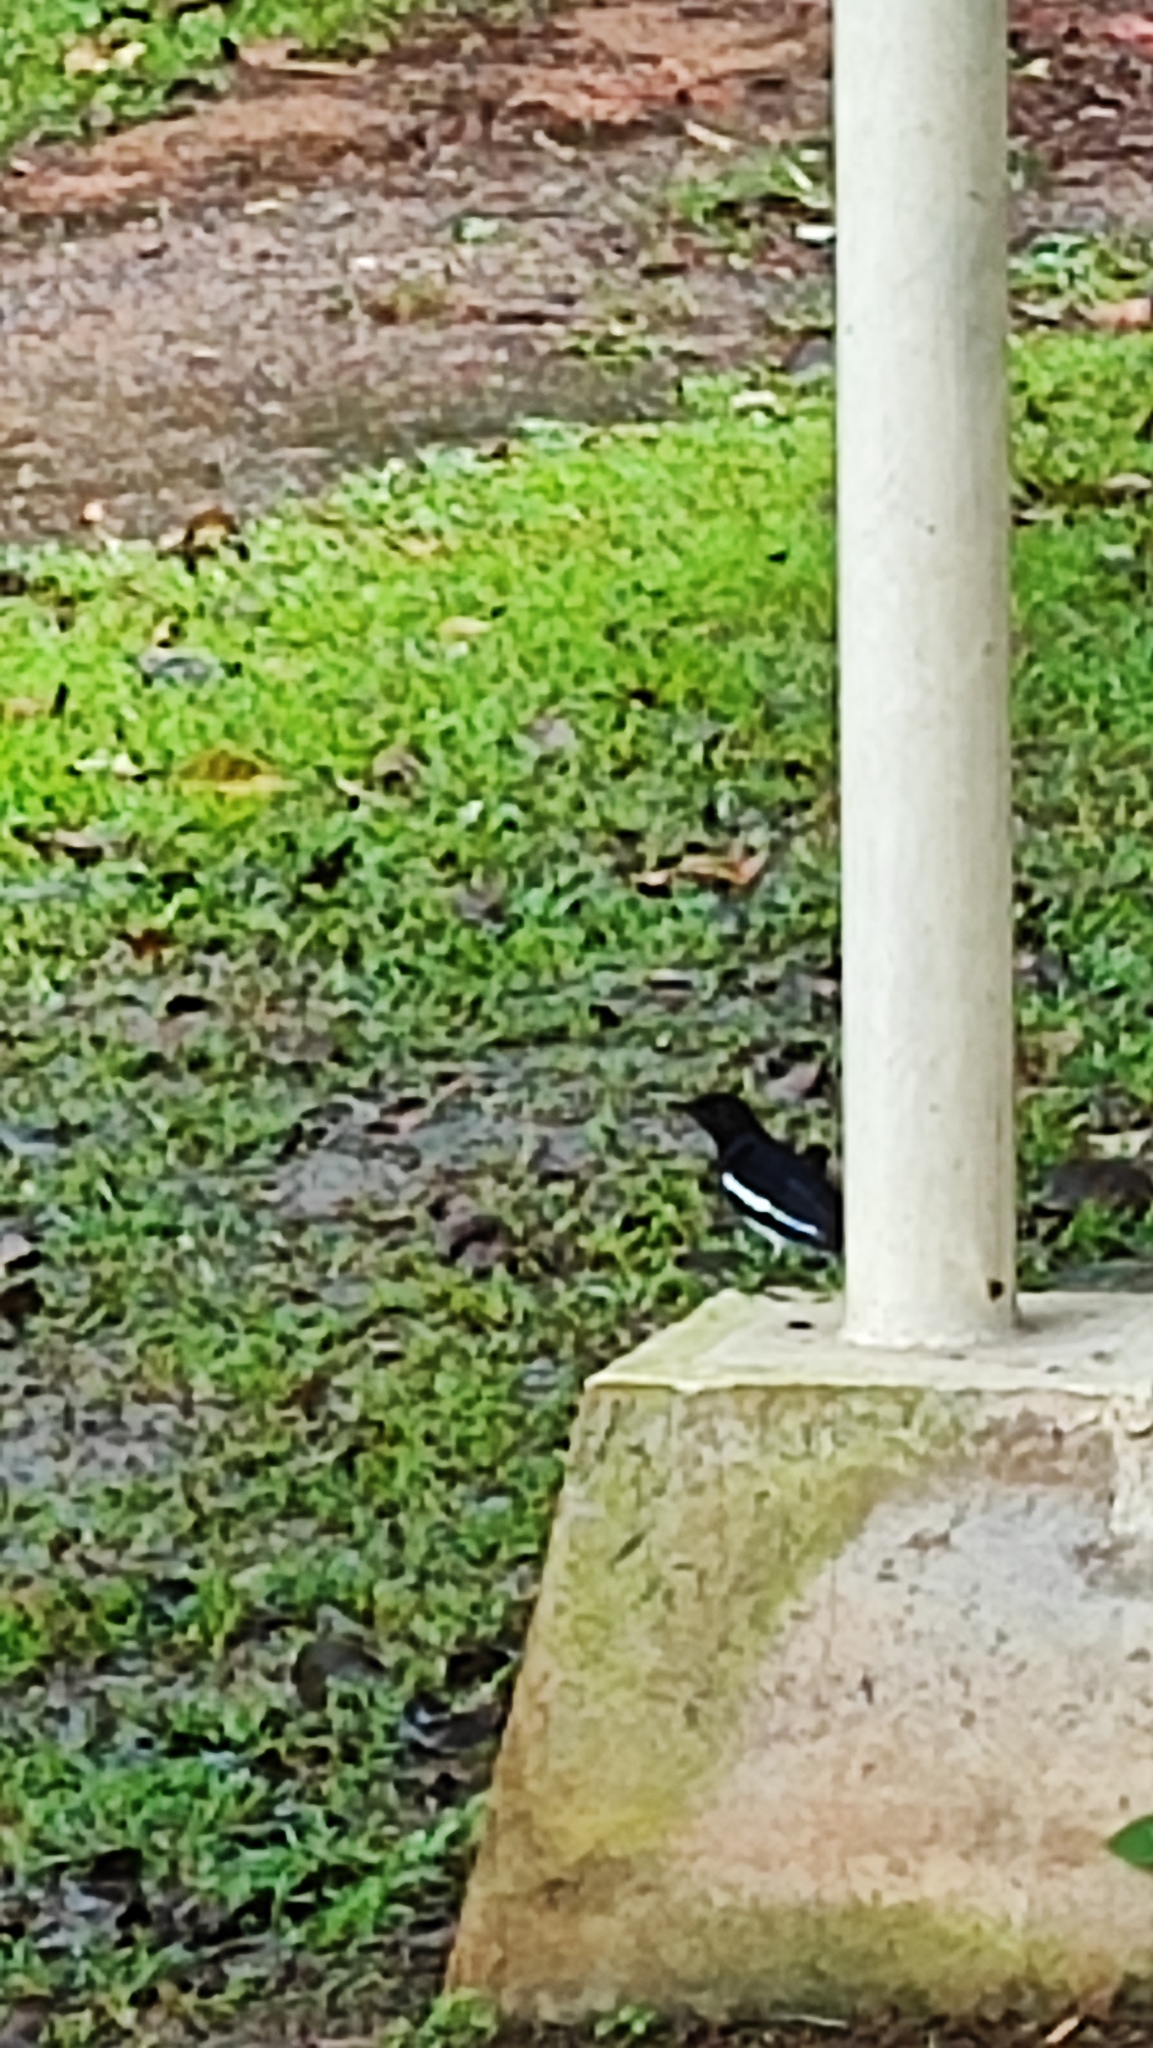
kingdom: Animalia
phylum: Chordata
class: Aves
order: Passeriformes
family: Muscicapidae
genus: Copsychus
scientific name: Copsychus saularis
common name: Oriental magpie-robin
